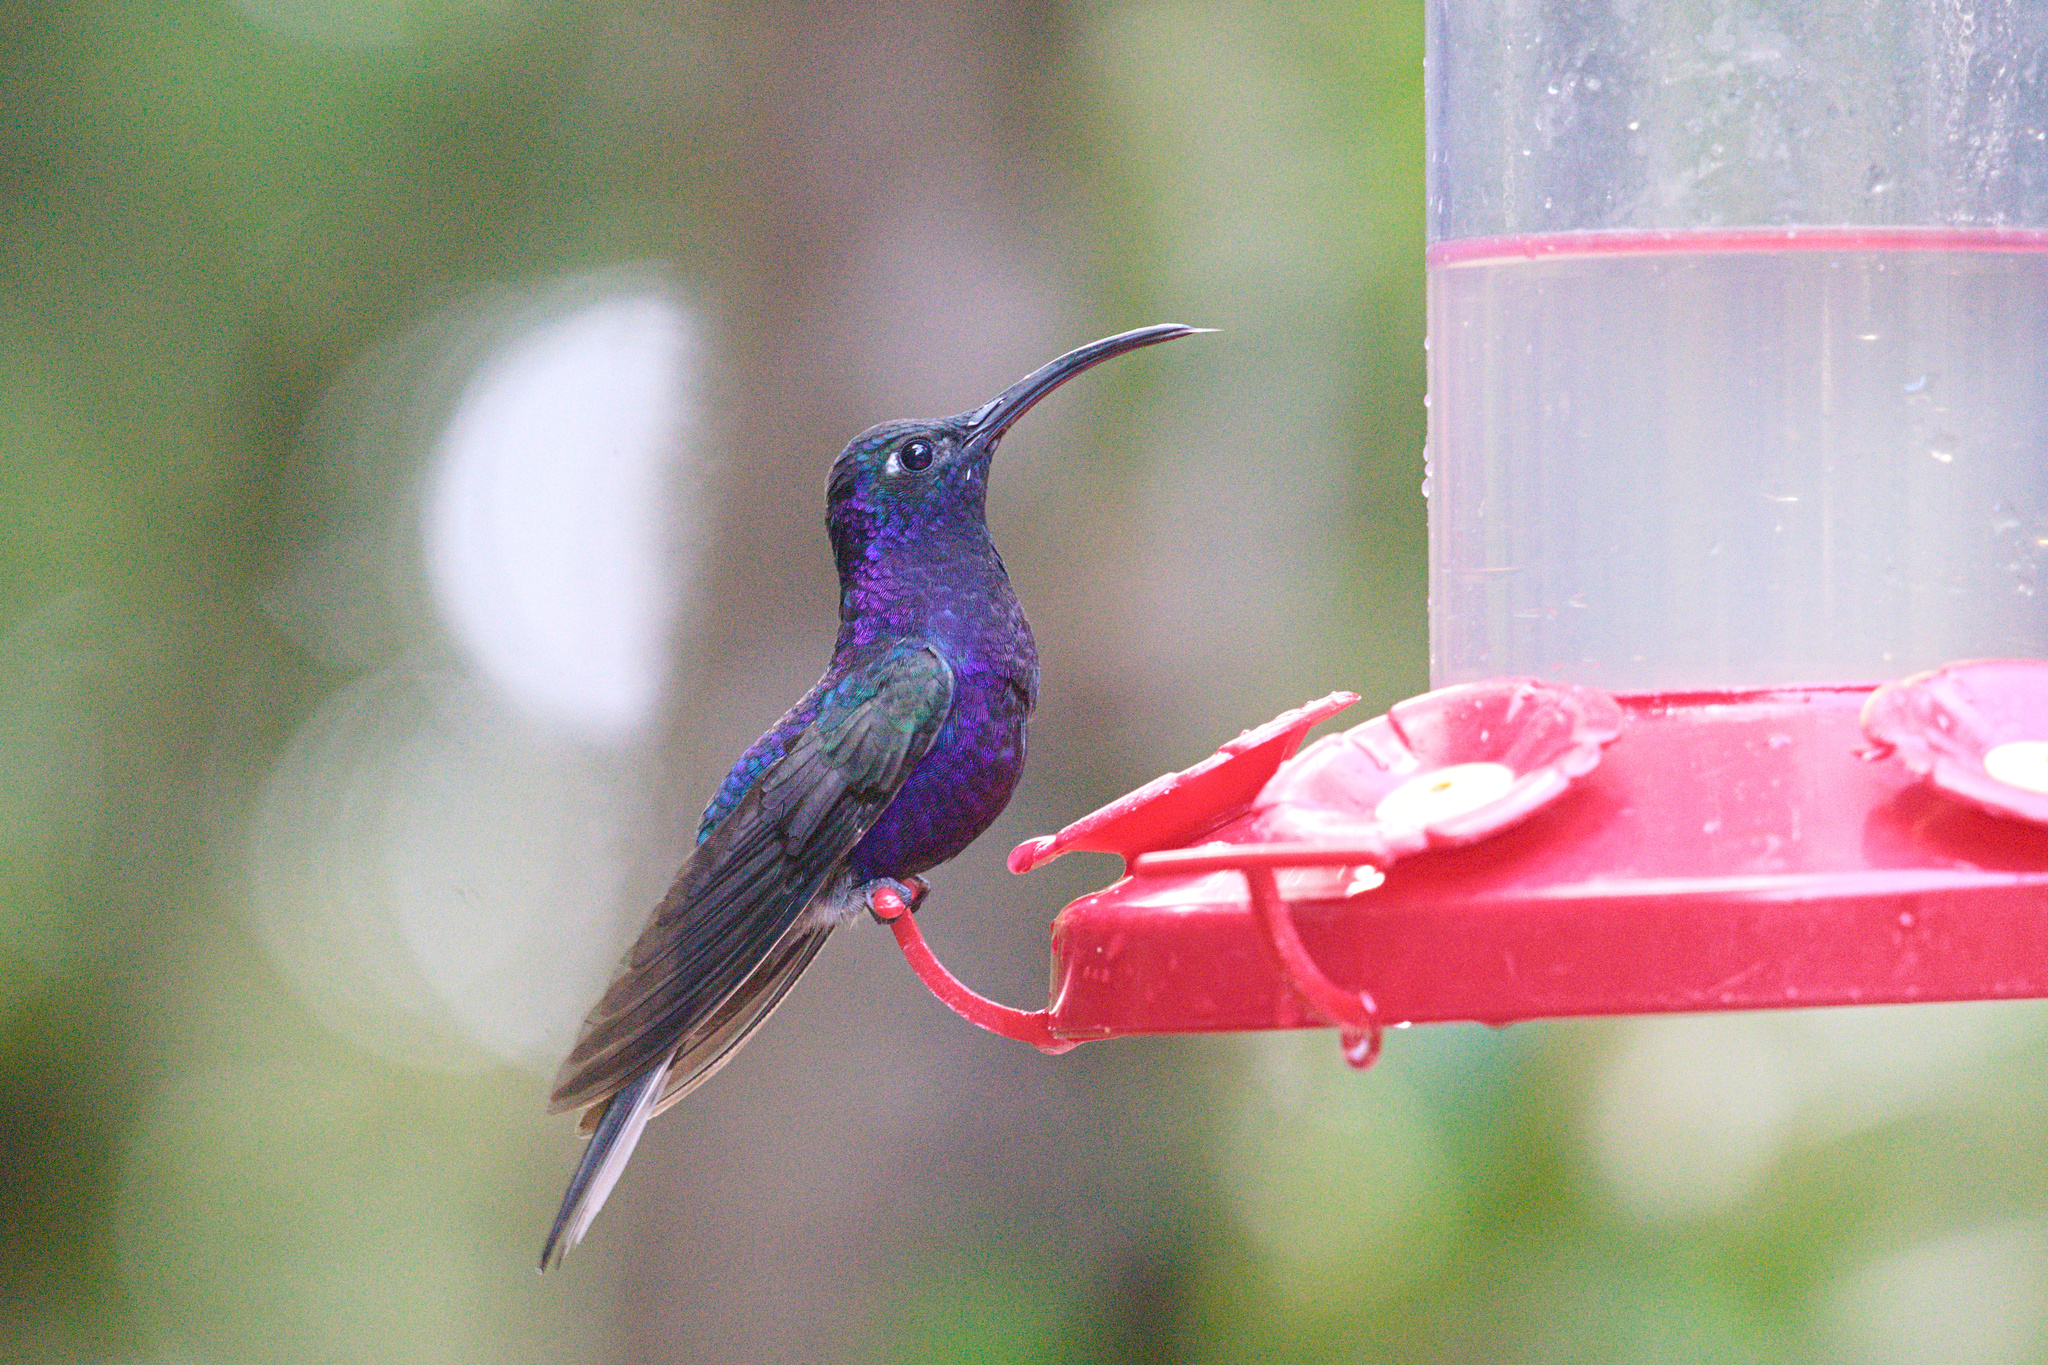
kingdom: Animalia
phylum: Chordata
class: Aves
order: Apodiformes
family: Trochilidae
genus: Campylopterus
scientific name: Campylopterus hemileucurus
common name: Violet sabrewing
